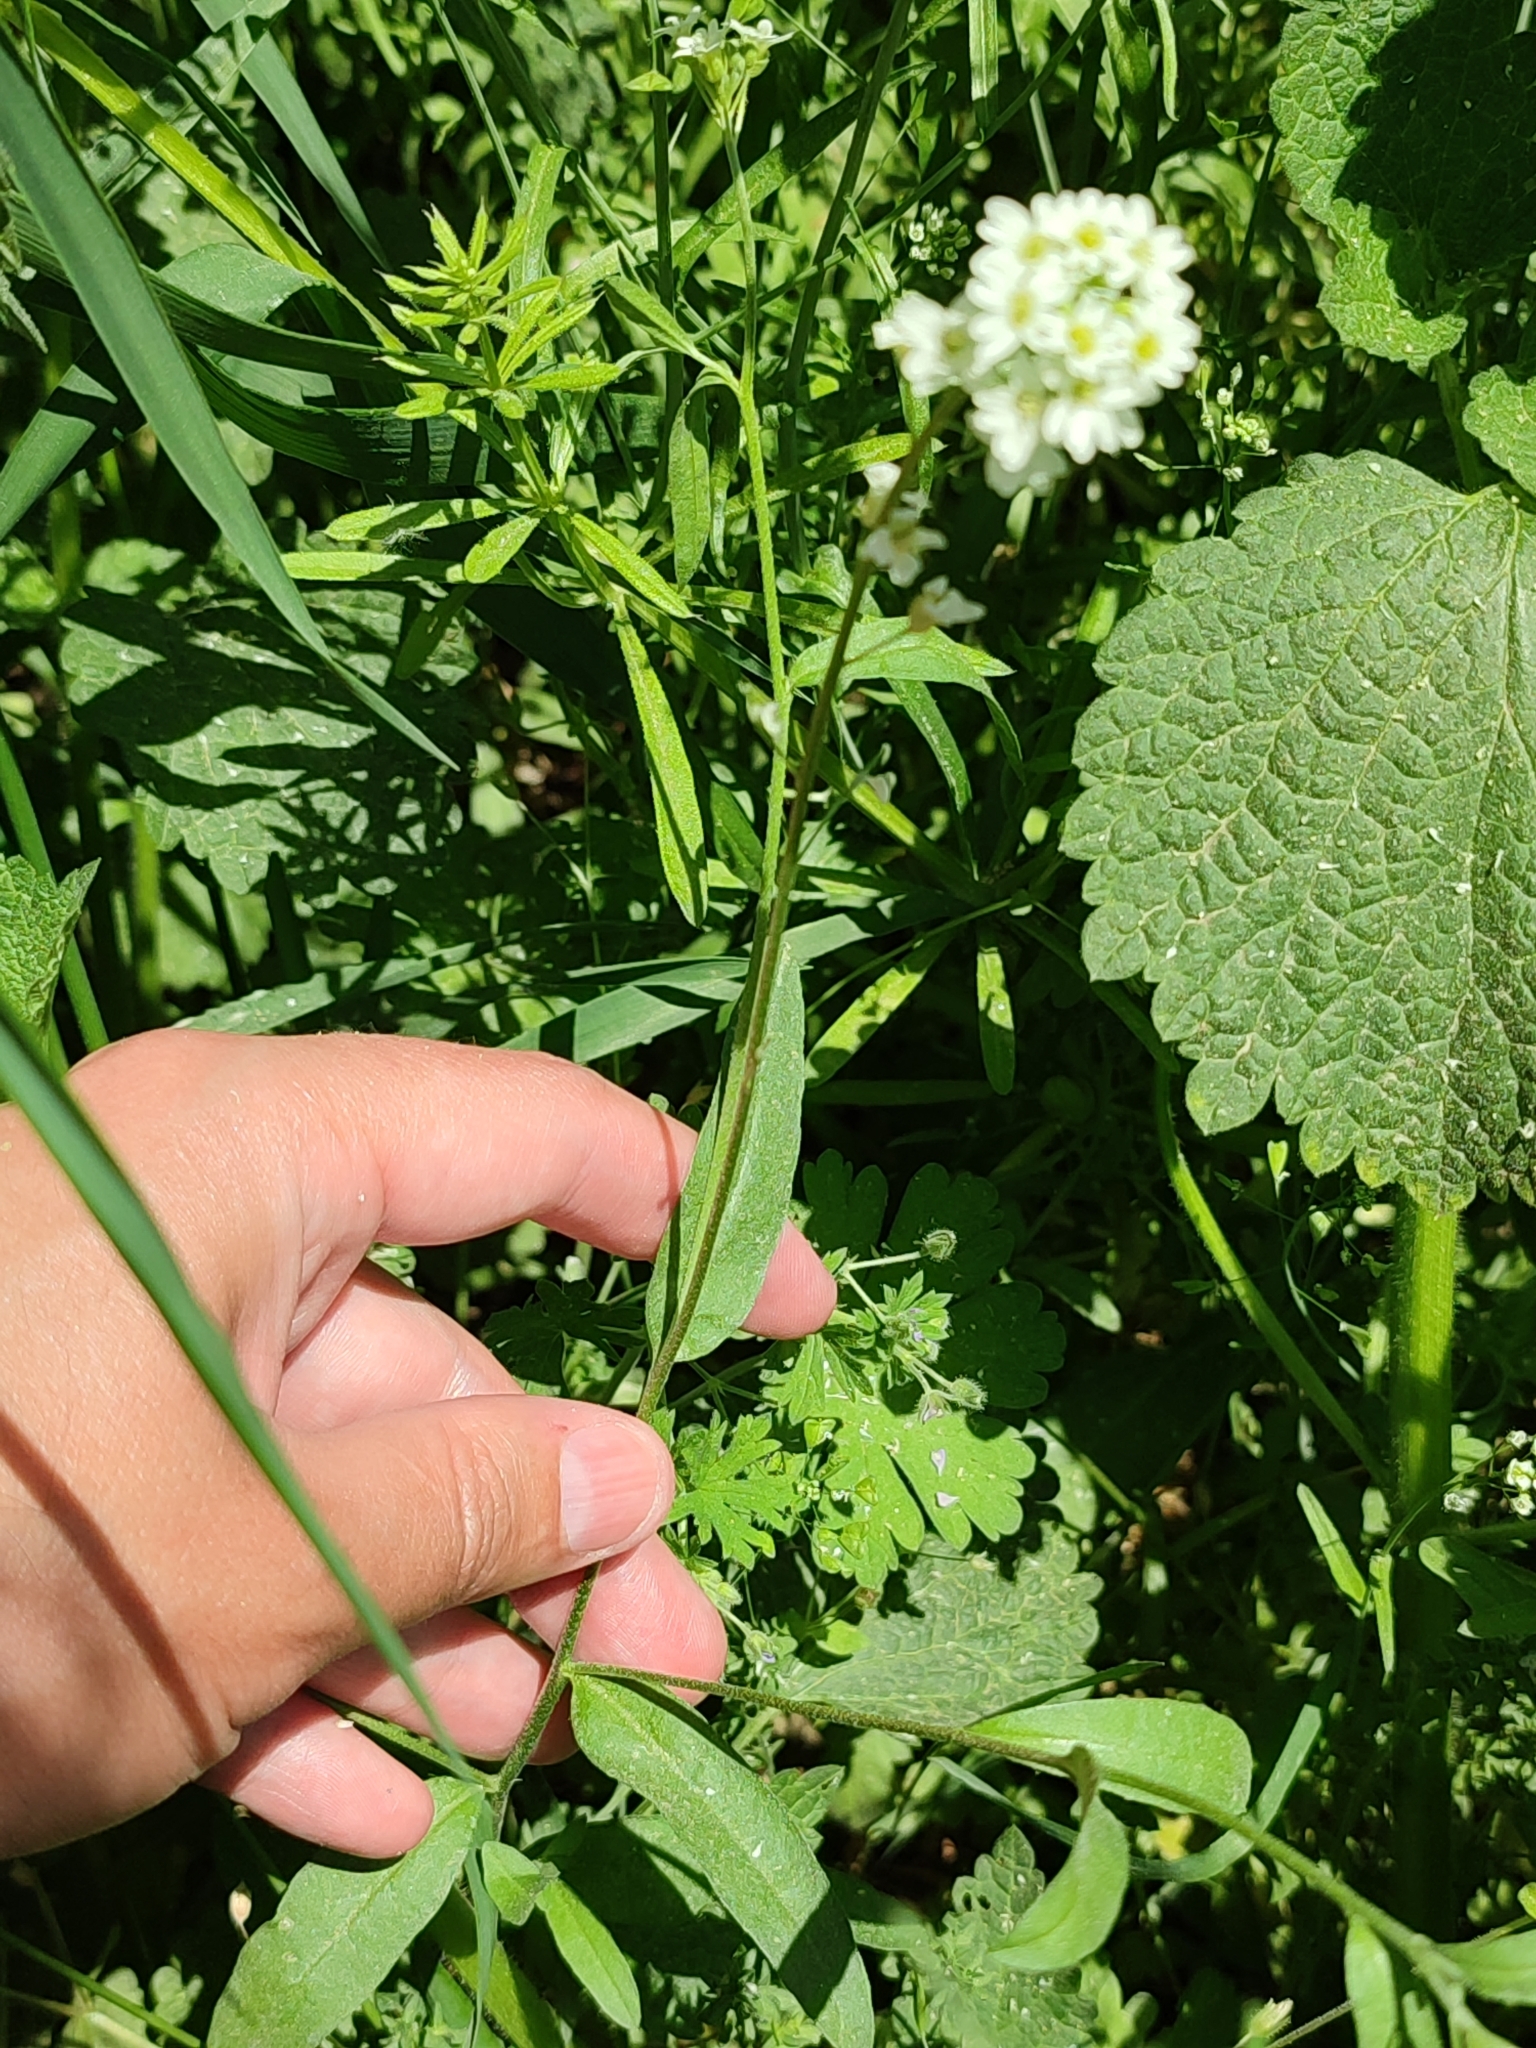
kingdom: Plantae
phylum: Tracheophyta
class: Magnoliopsida
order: Brassicales
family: Brassicaceae
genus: Berteroa
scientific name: Berteroa incana
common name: Hoary alison
